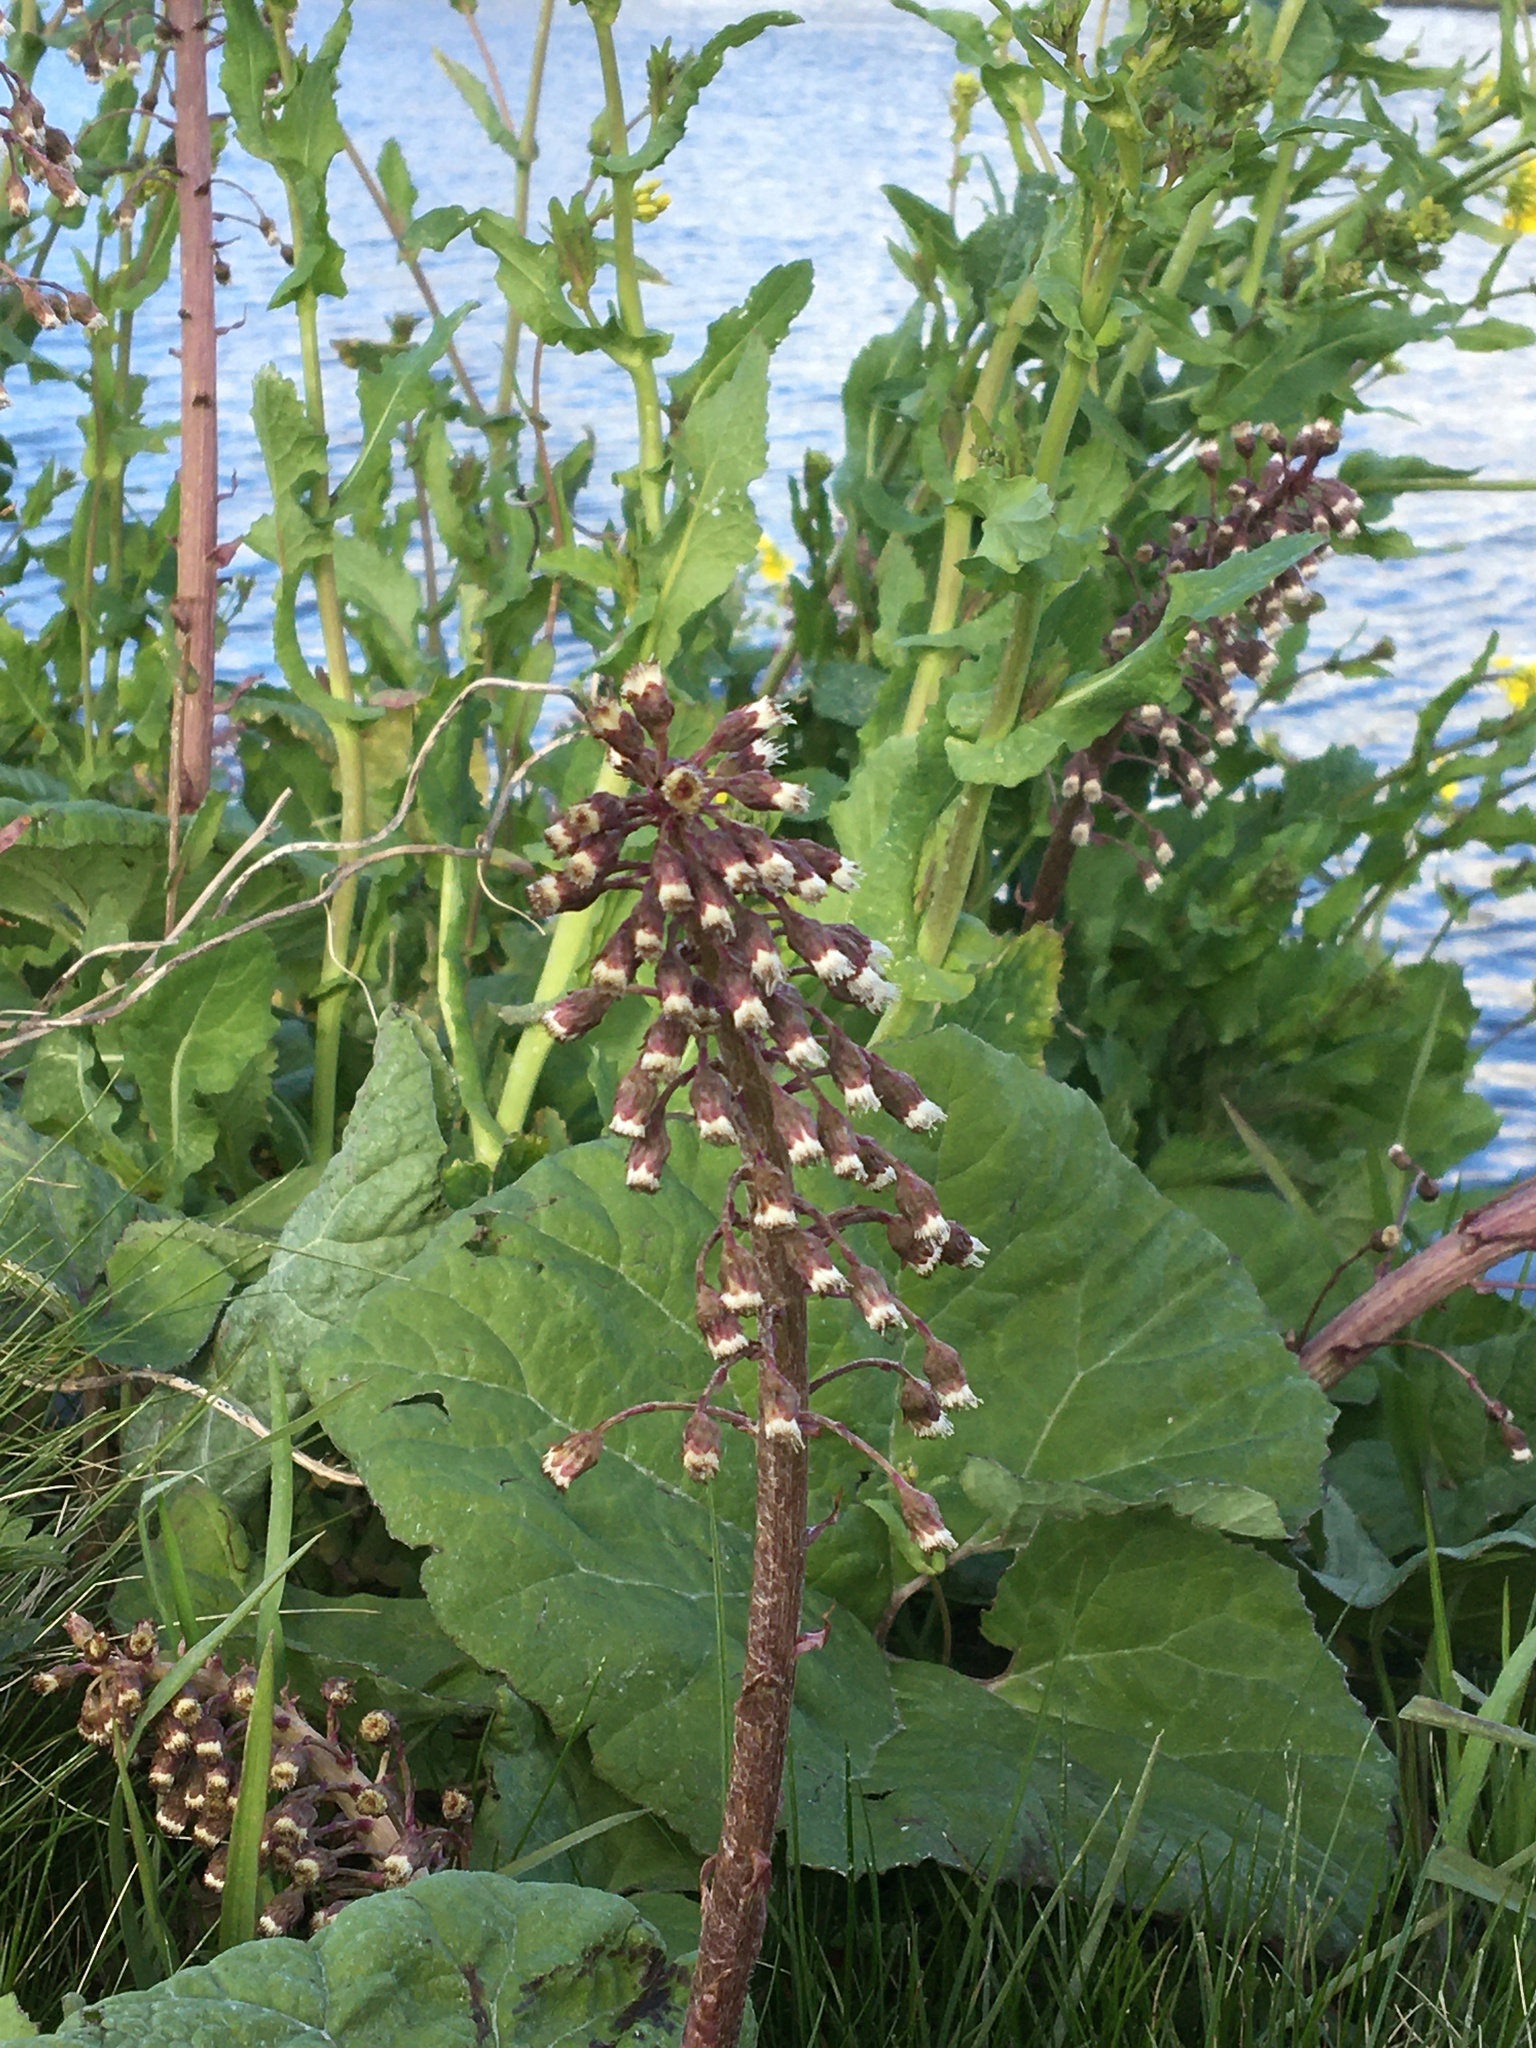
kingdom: Plantae
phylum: Tracheophyta
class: Magnoliopsida
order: Asterales
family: Asteraceae
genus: Petasites
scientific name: Petasites hybridus
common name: Butterbur
